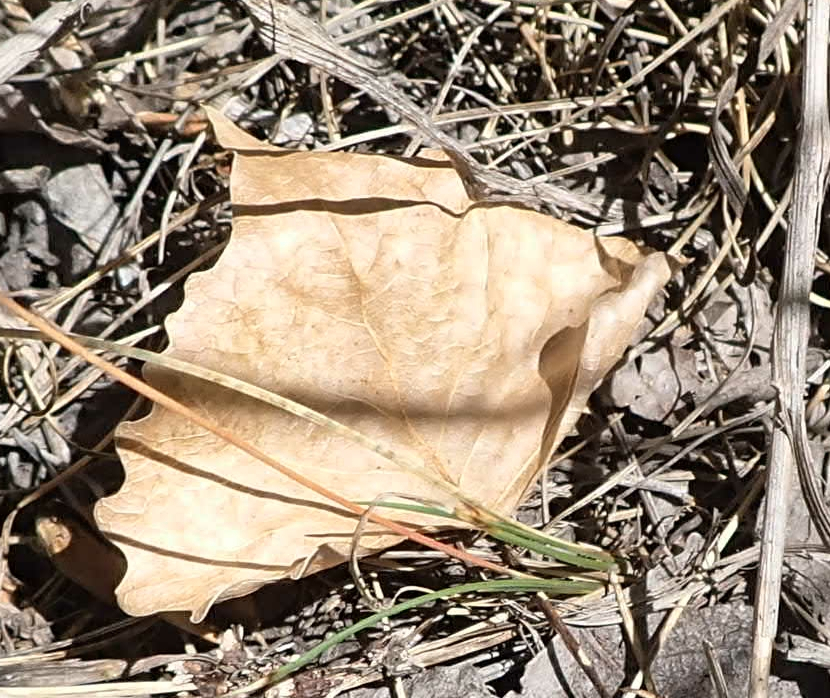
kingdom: Plantae
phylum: Tracheophyta
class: Magnoliopsida
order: Malpighiales
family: Salicaceae
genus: Populus
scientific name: Populus deltoides
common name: Eastern cottonwood
